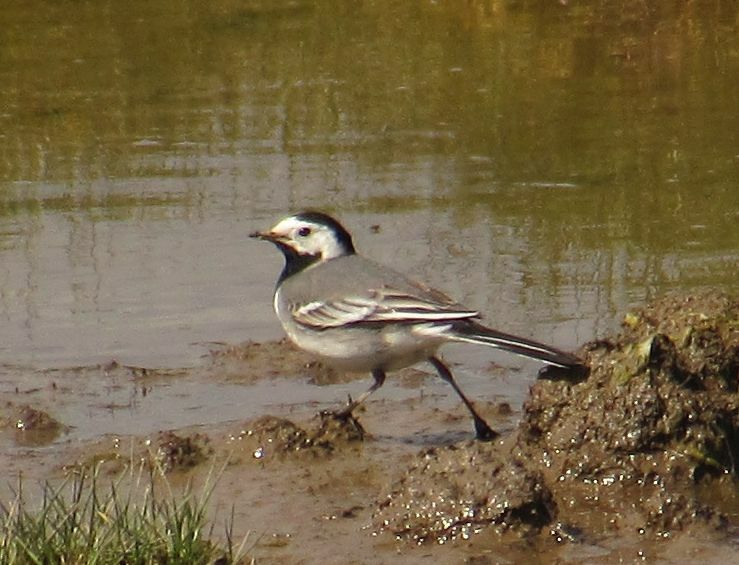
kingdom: Animalia
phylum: Chordata
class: Aves
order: Passeriformes
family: Motacillidae
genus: Motacilla
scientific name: Motacilla alba
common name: White wagtail
